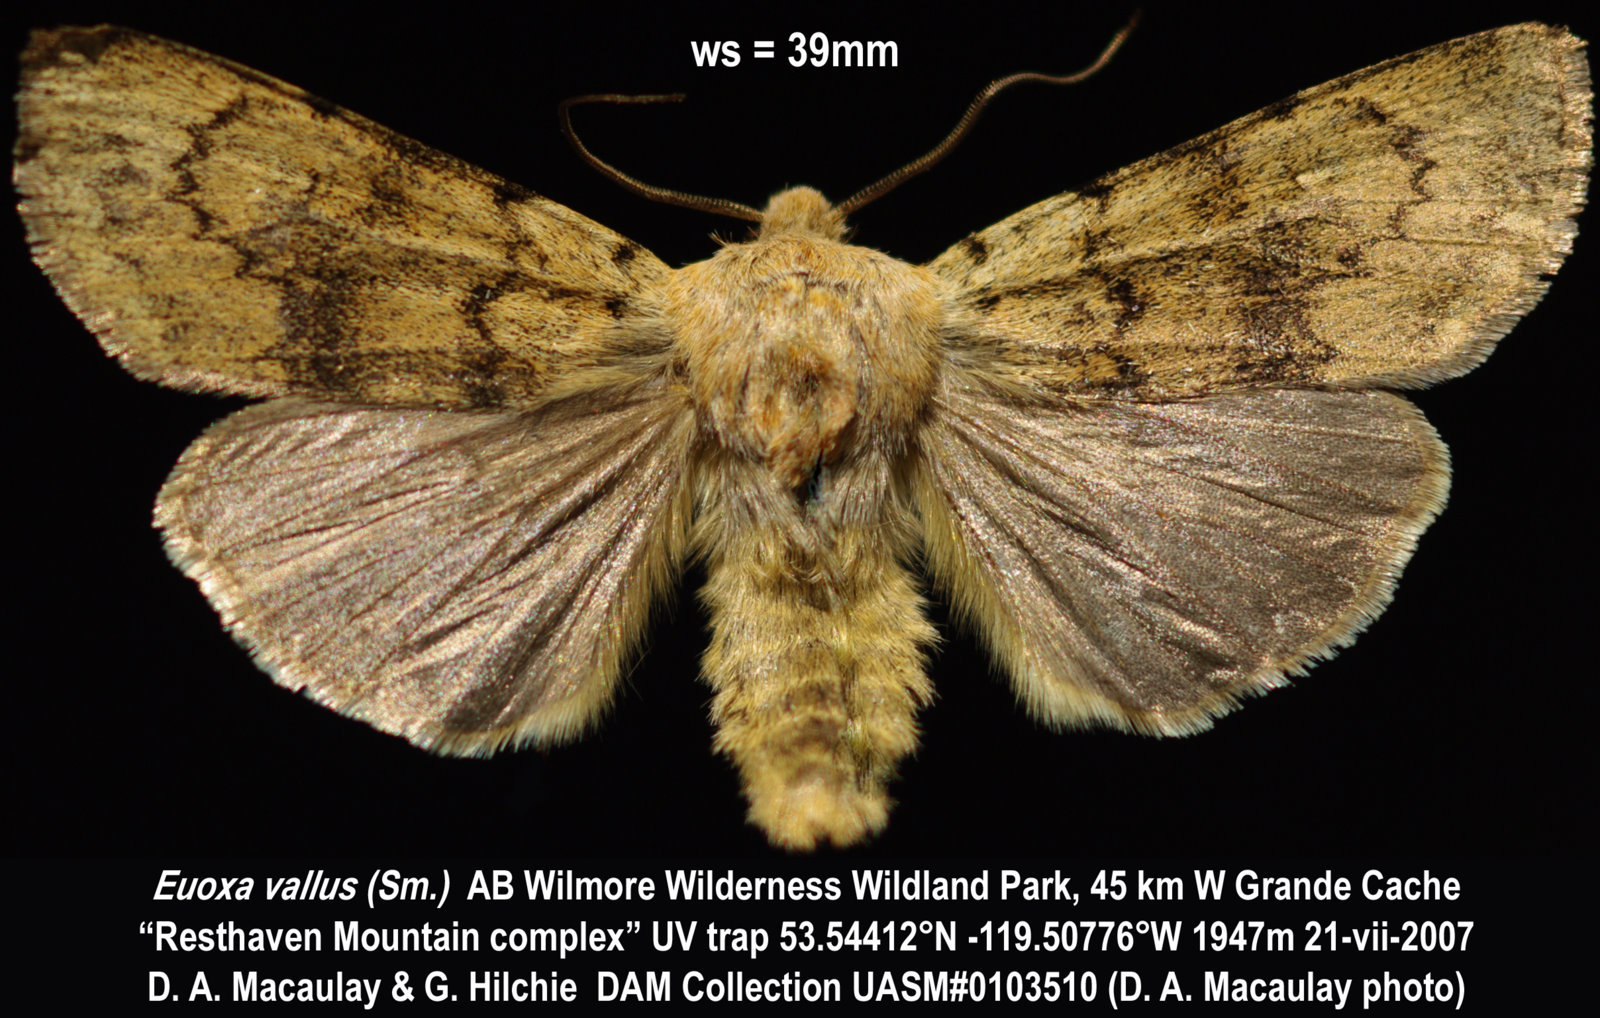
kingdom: Animalia
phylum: Arthropoda
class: Insecta
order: Lepidoptera
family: Noctuidae
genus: Euxoa
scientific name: Euxoa vallus
